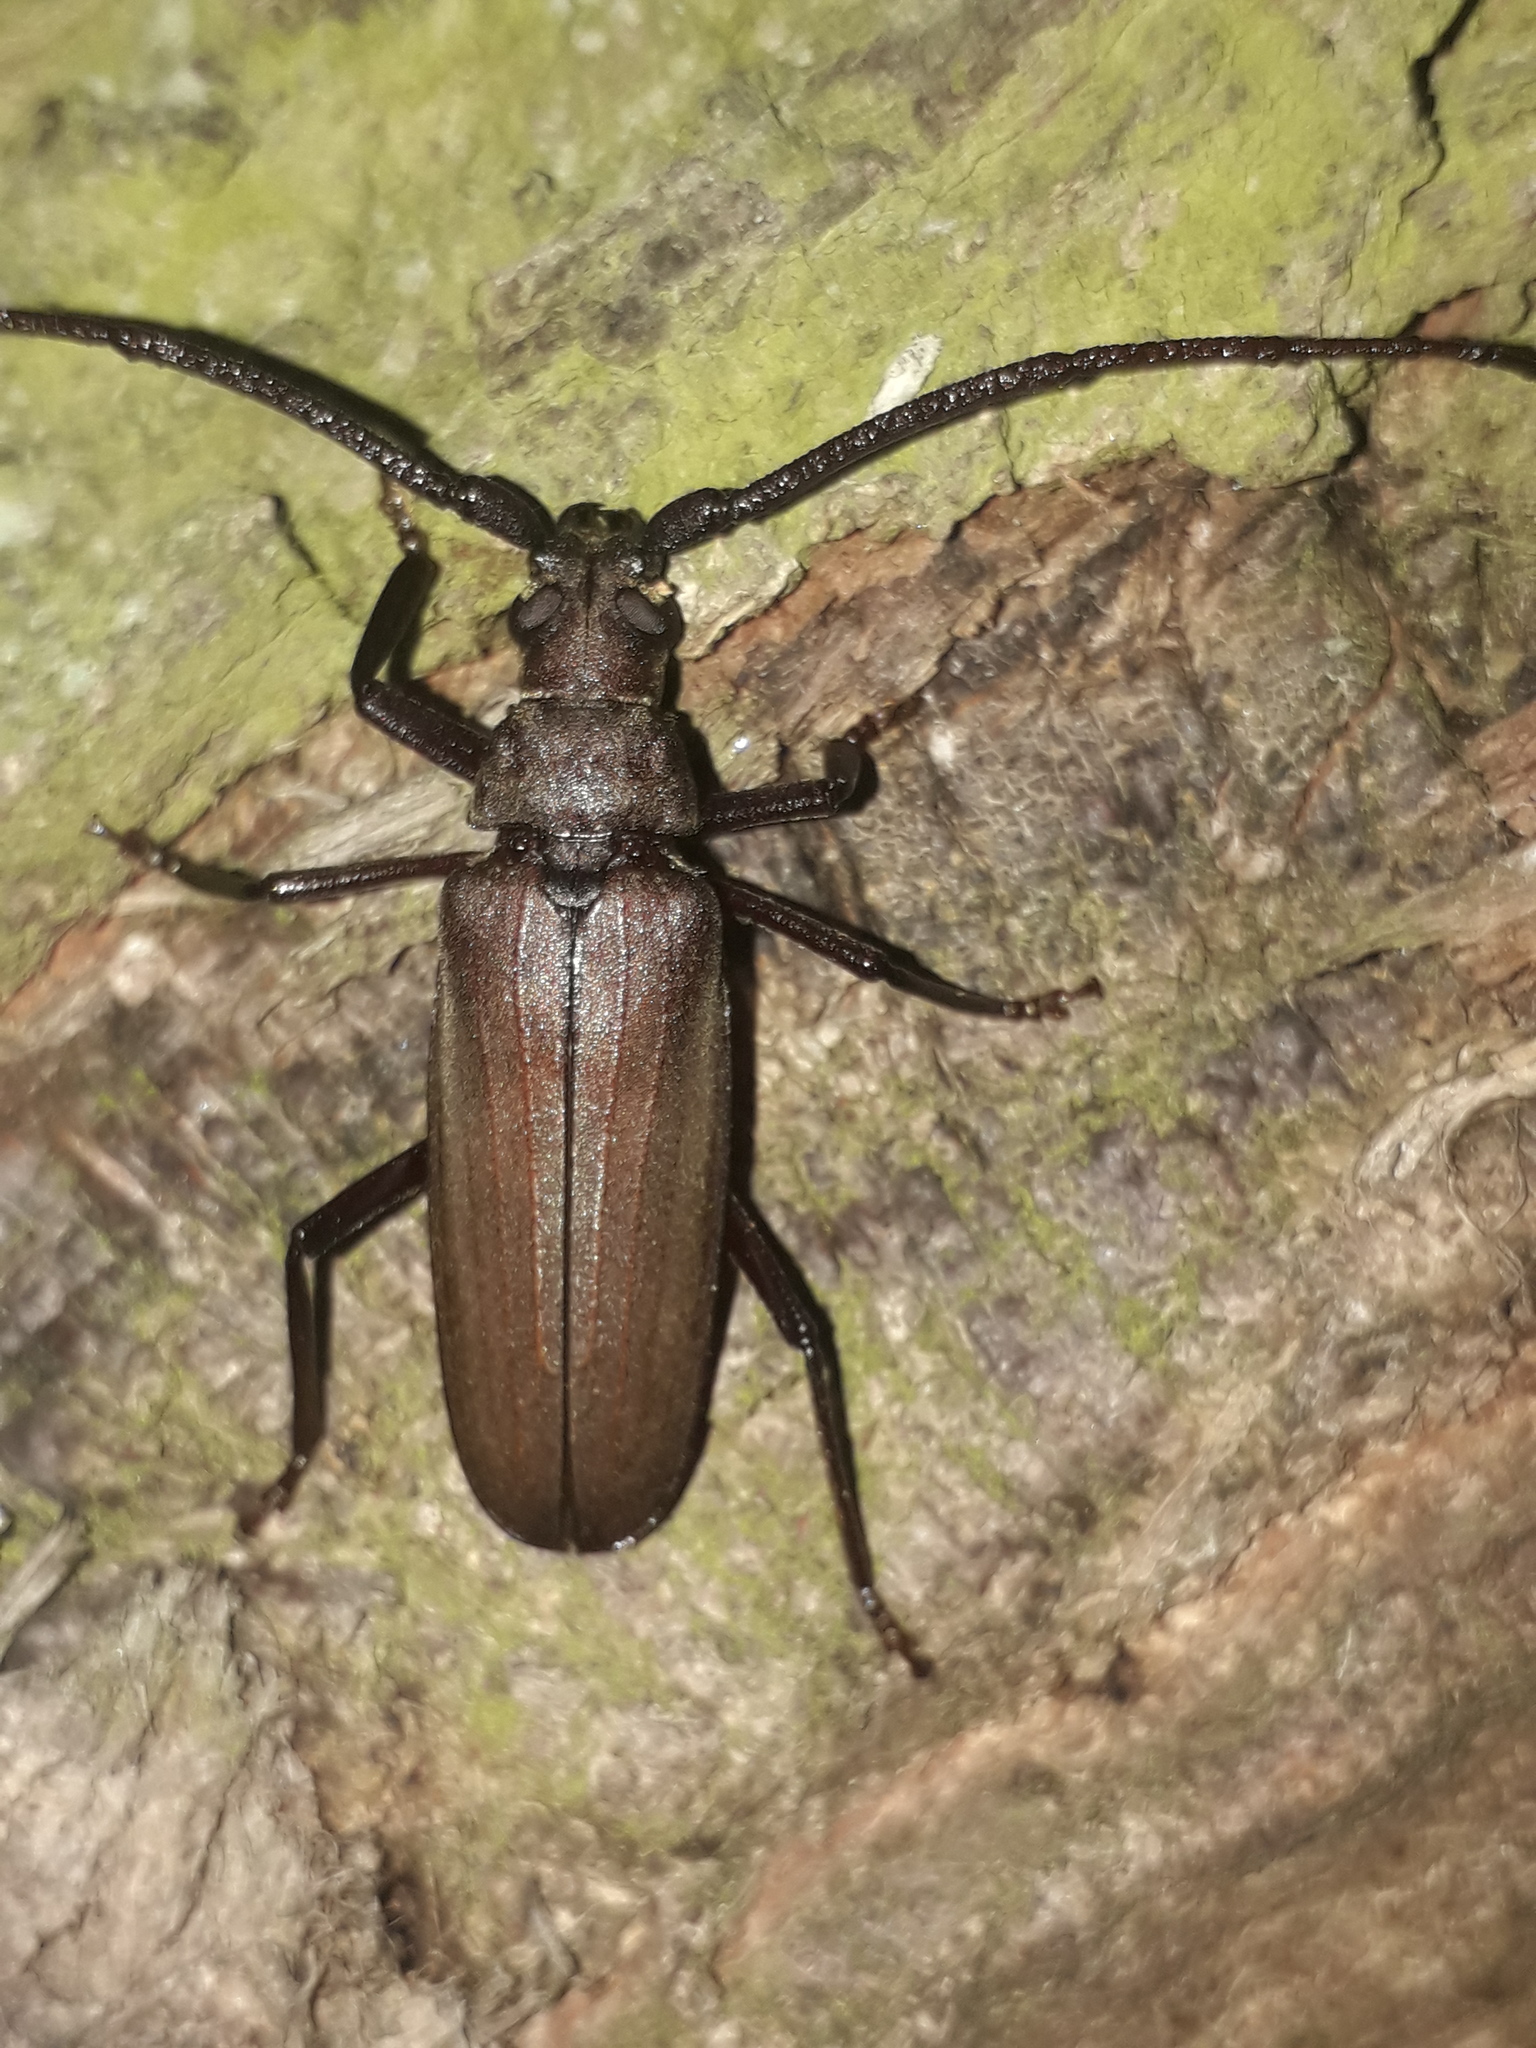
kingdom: Animalia
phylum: Arthropoda
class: Insecta
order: Coleoptera
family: Cerambycidae
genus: Aegosoma
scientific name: Aegosoma scabricorne
